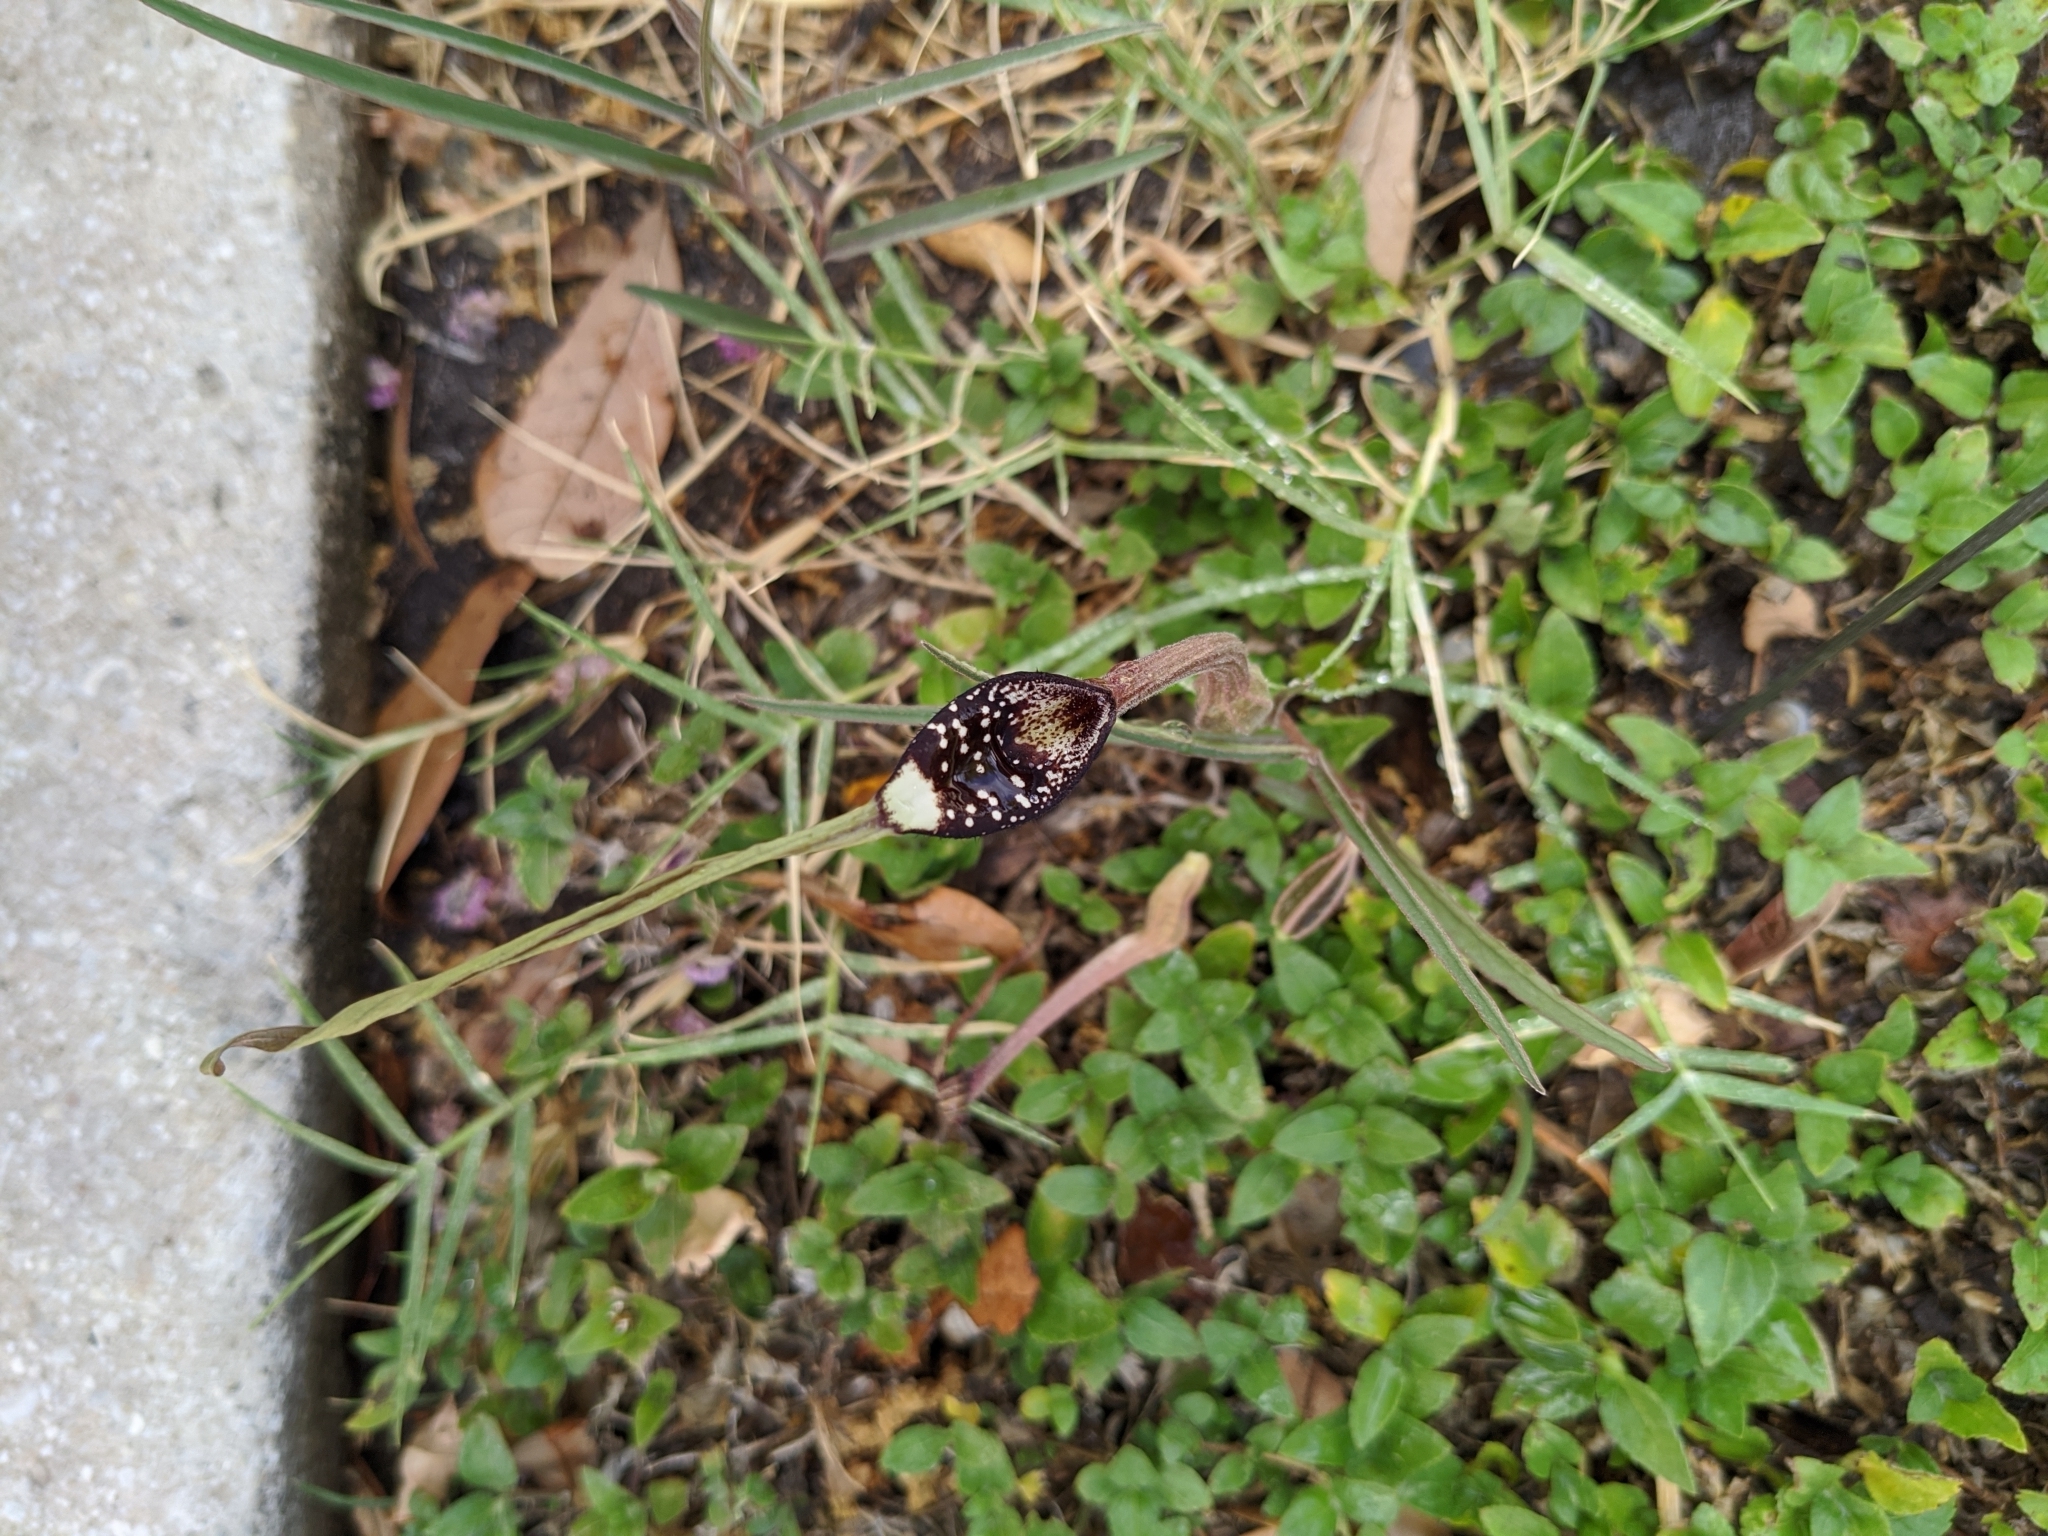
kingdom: Plantae
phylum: Tracheophyta
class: Magnoliopsida
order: Piperales
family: Aristolochiaceae
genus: Aristolochia
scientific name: Aristolochia erecta
